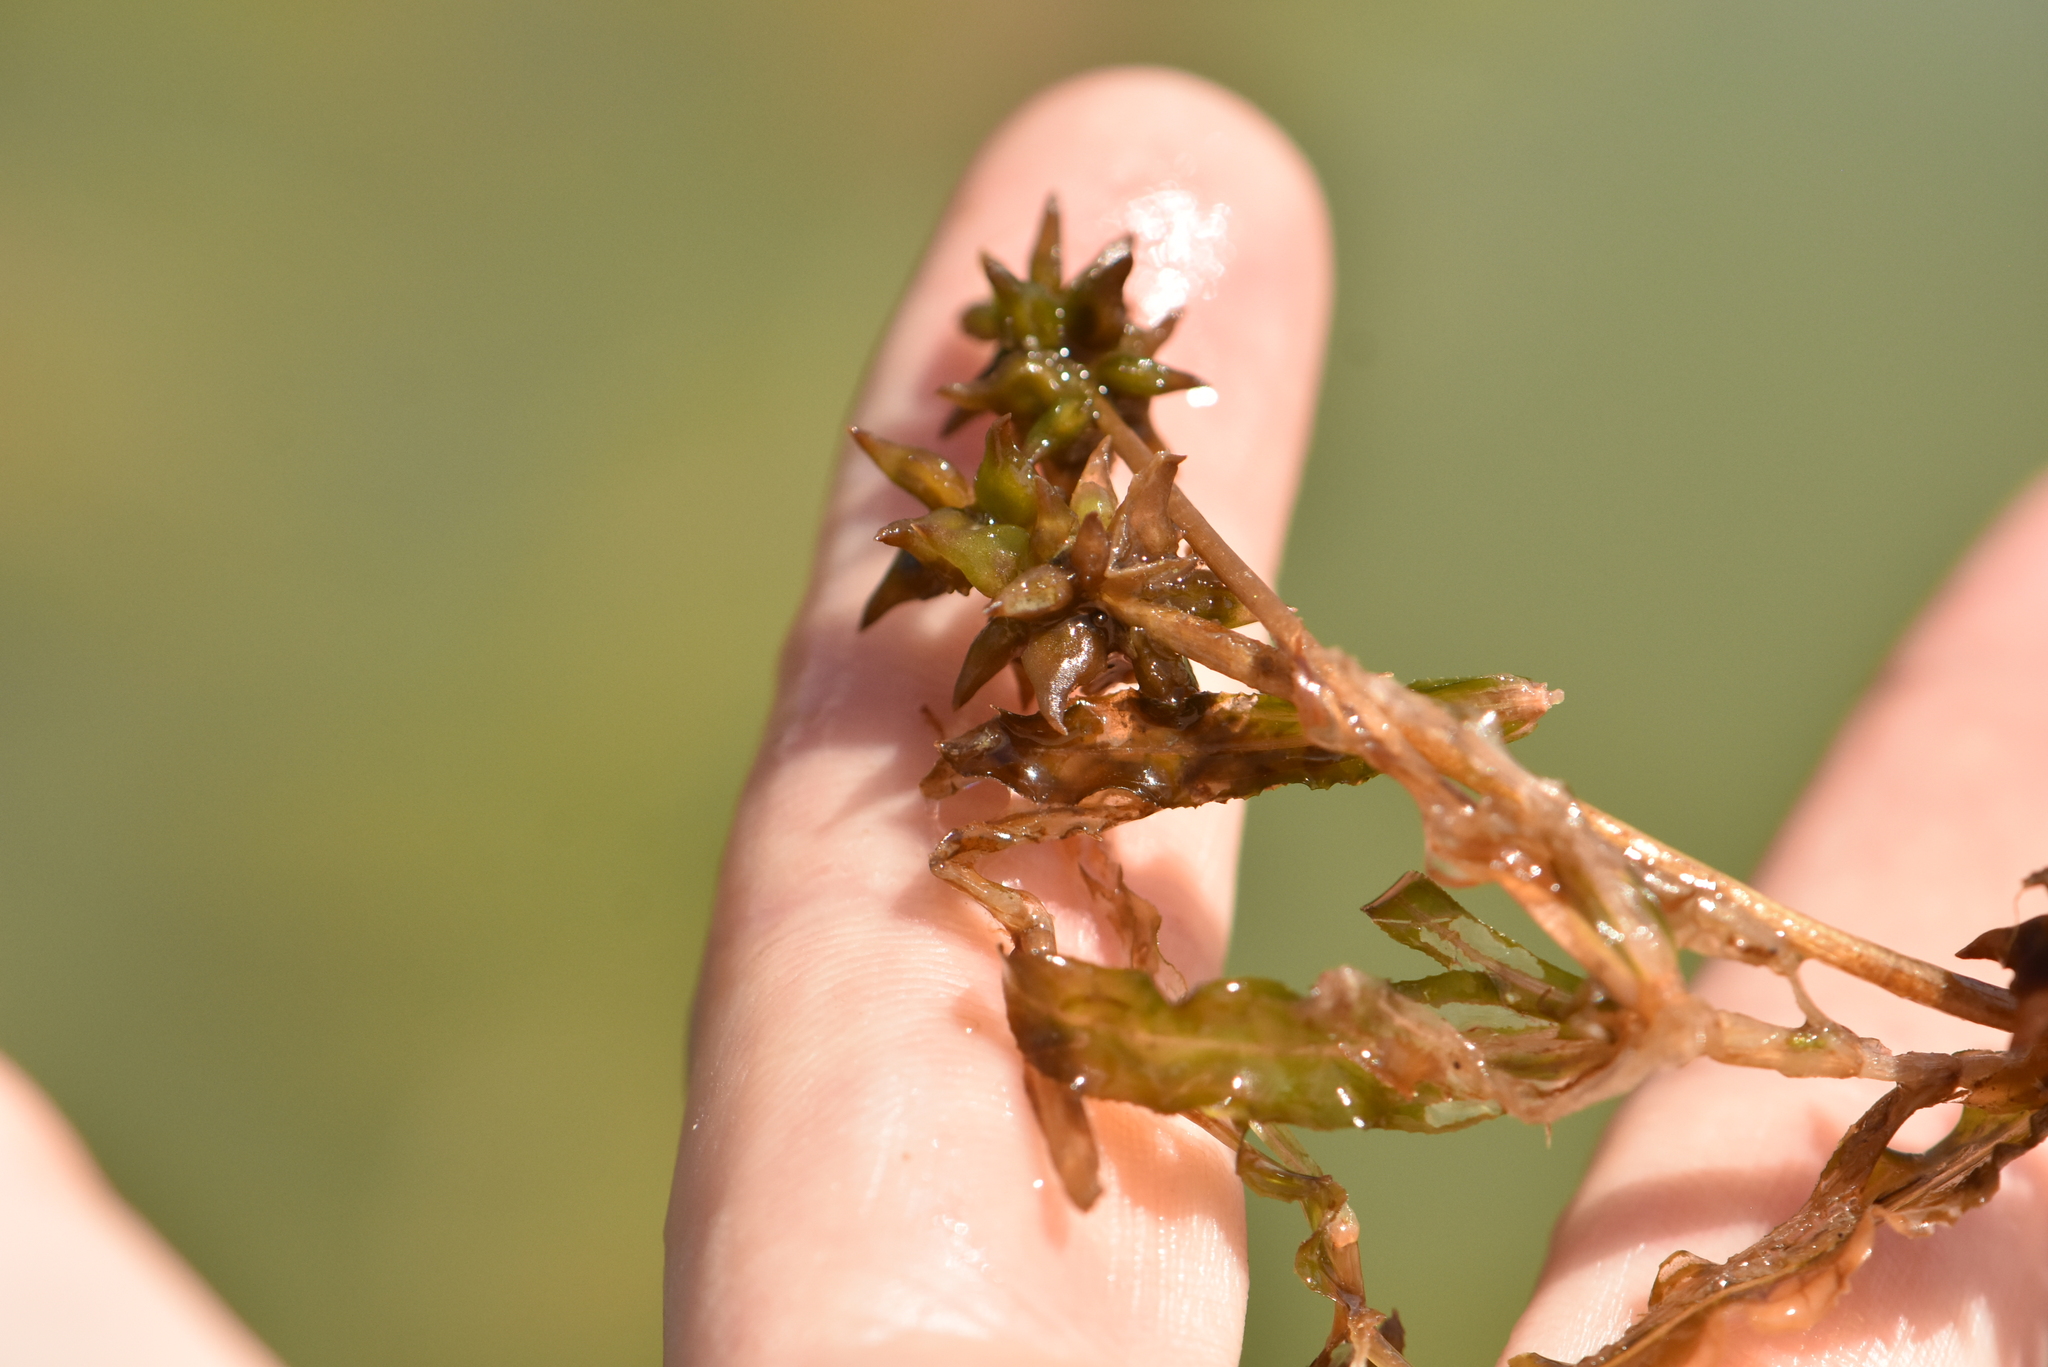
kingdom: Plantae
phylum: Tracheophyta
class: Liliopsida
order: Alismatales
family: Potamogetonaceae
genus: Potamogeton
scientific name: Potamogeton crispus
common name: Curled pondweed
